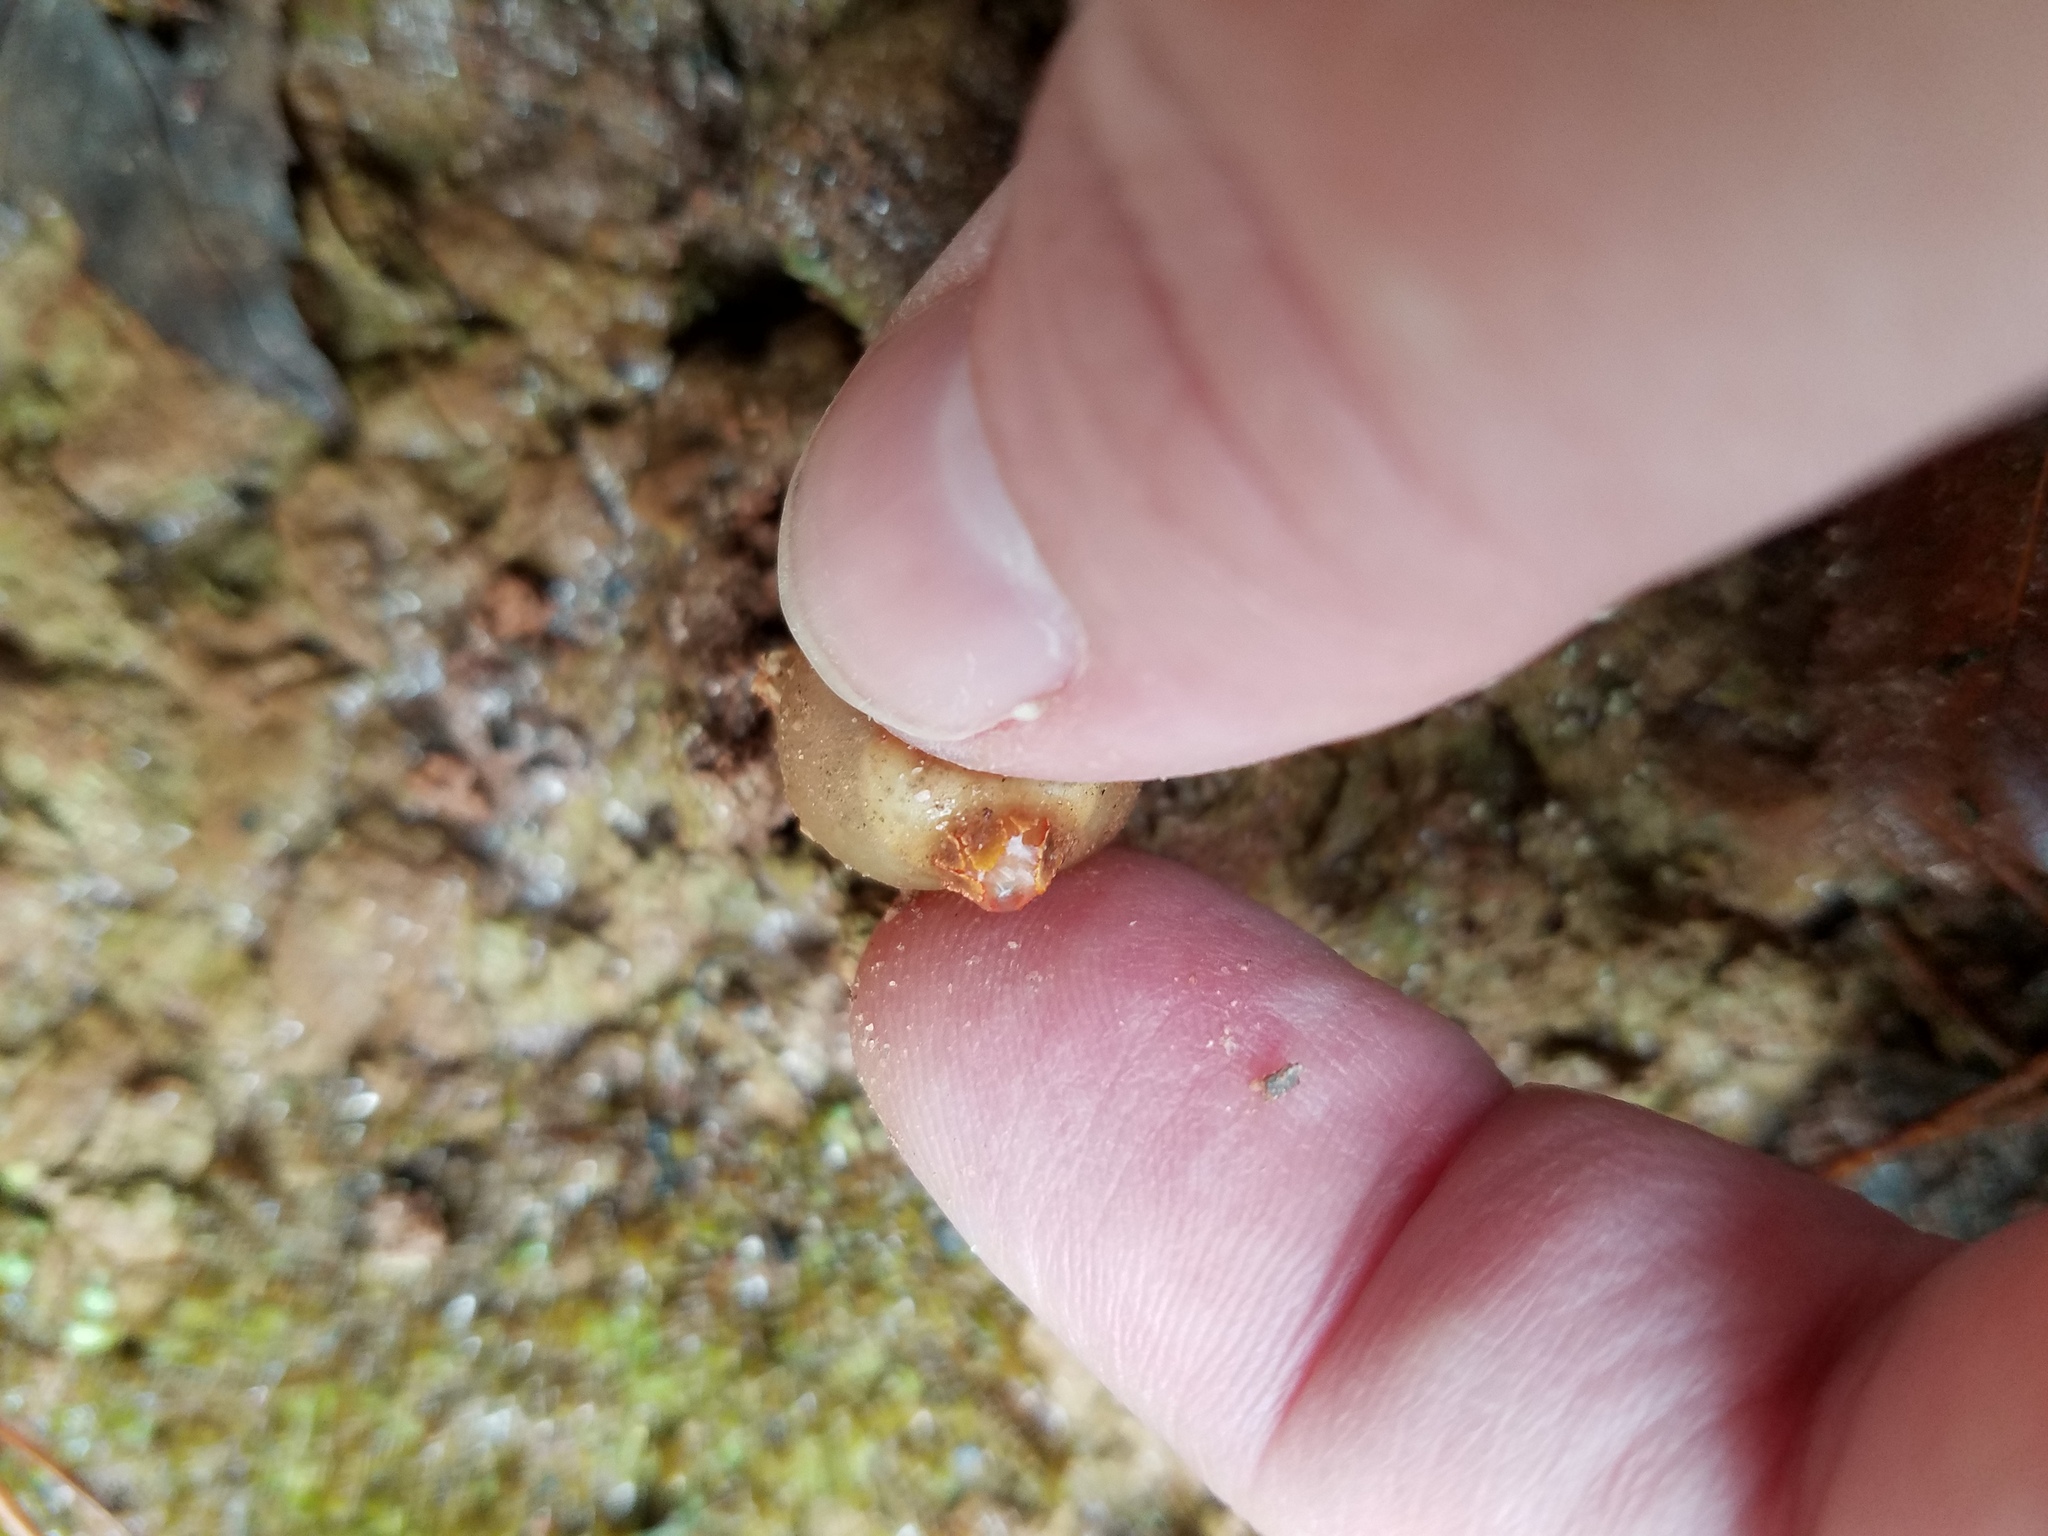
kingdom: Fungi
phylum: Basidiomycota
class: Agaricomycetes
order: Boletales
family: Calostomataceae
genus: Calostoma
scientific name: Calostoma ravenelii
